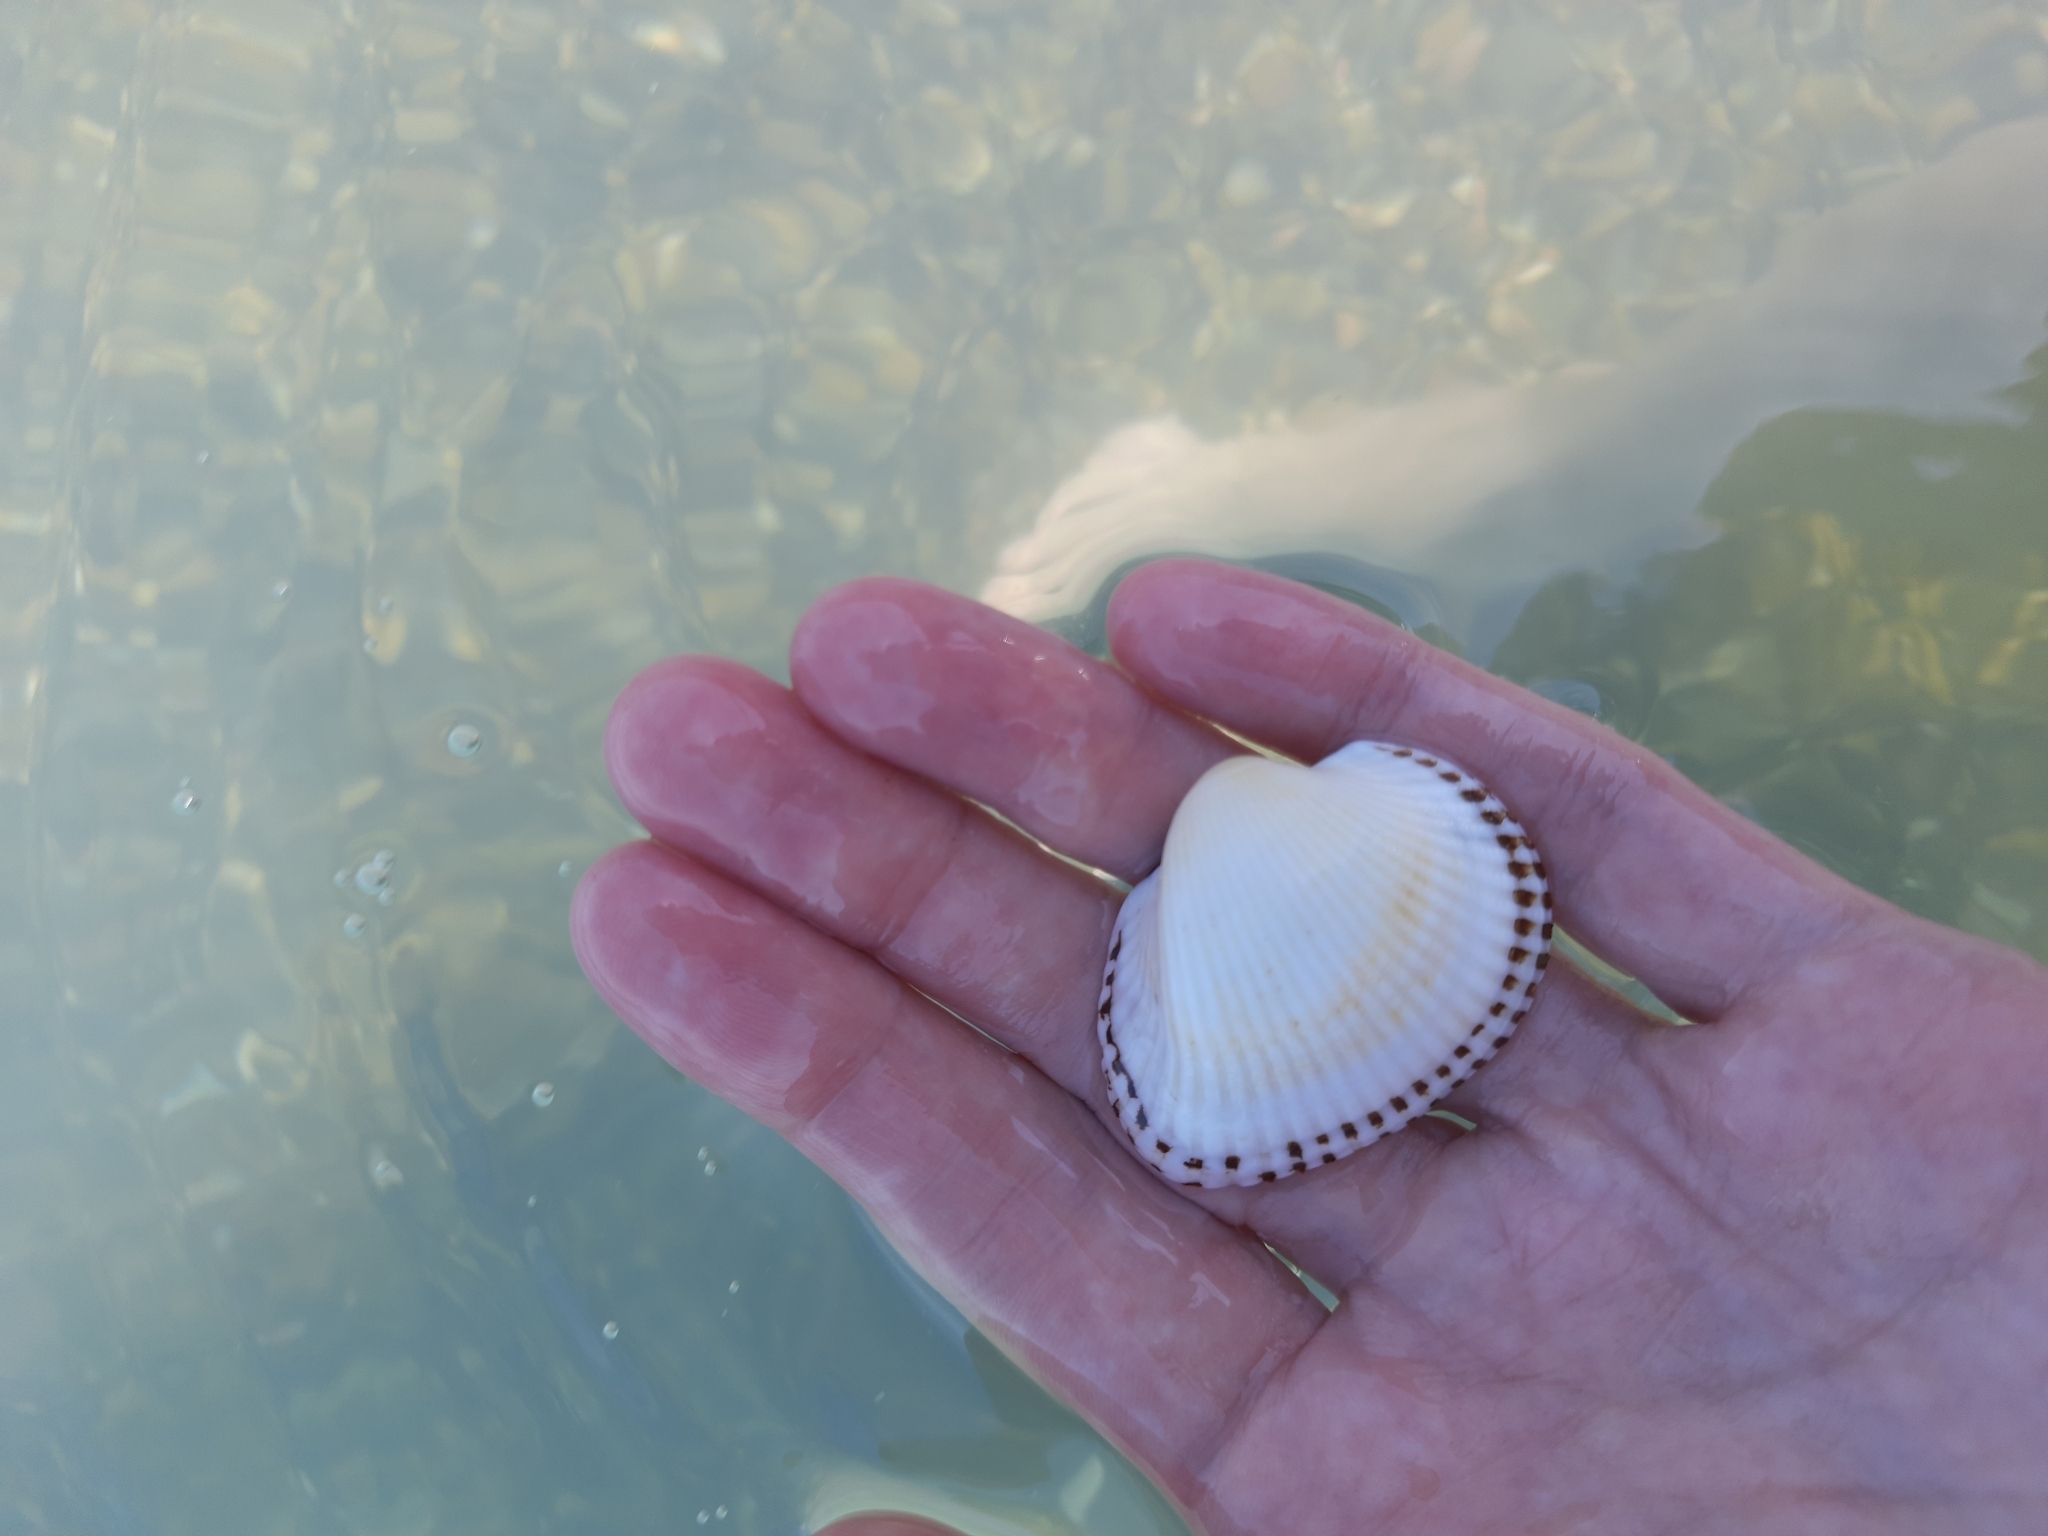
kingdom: Animalia
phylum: Mollusca
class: Bivalvia
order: Arcida
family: Arcidae
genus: Anadara
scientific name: Anadara kagoshimensis
